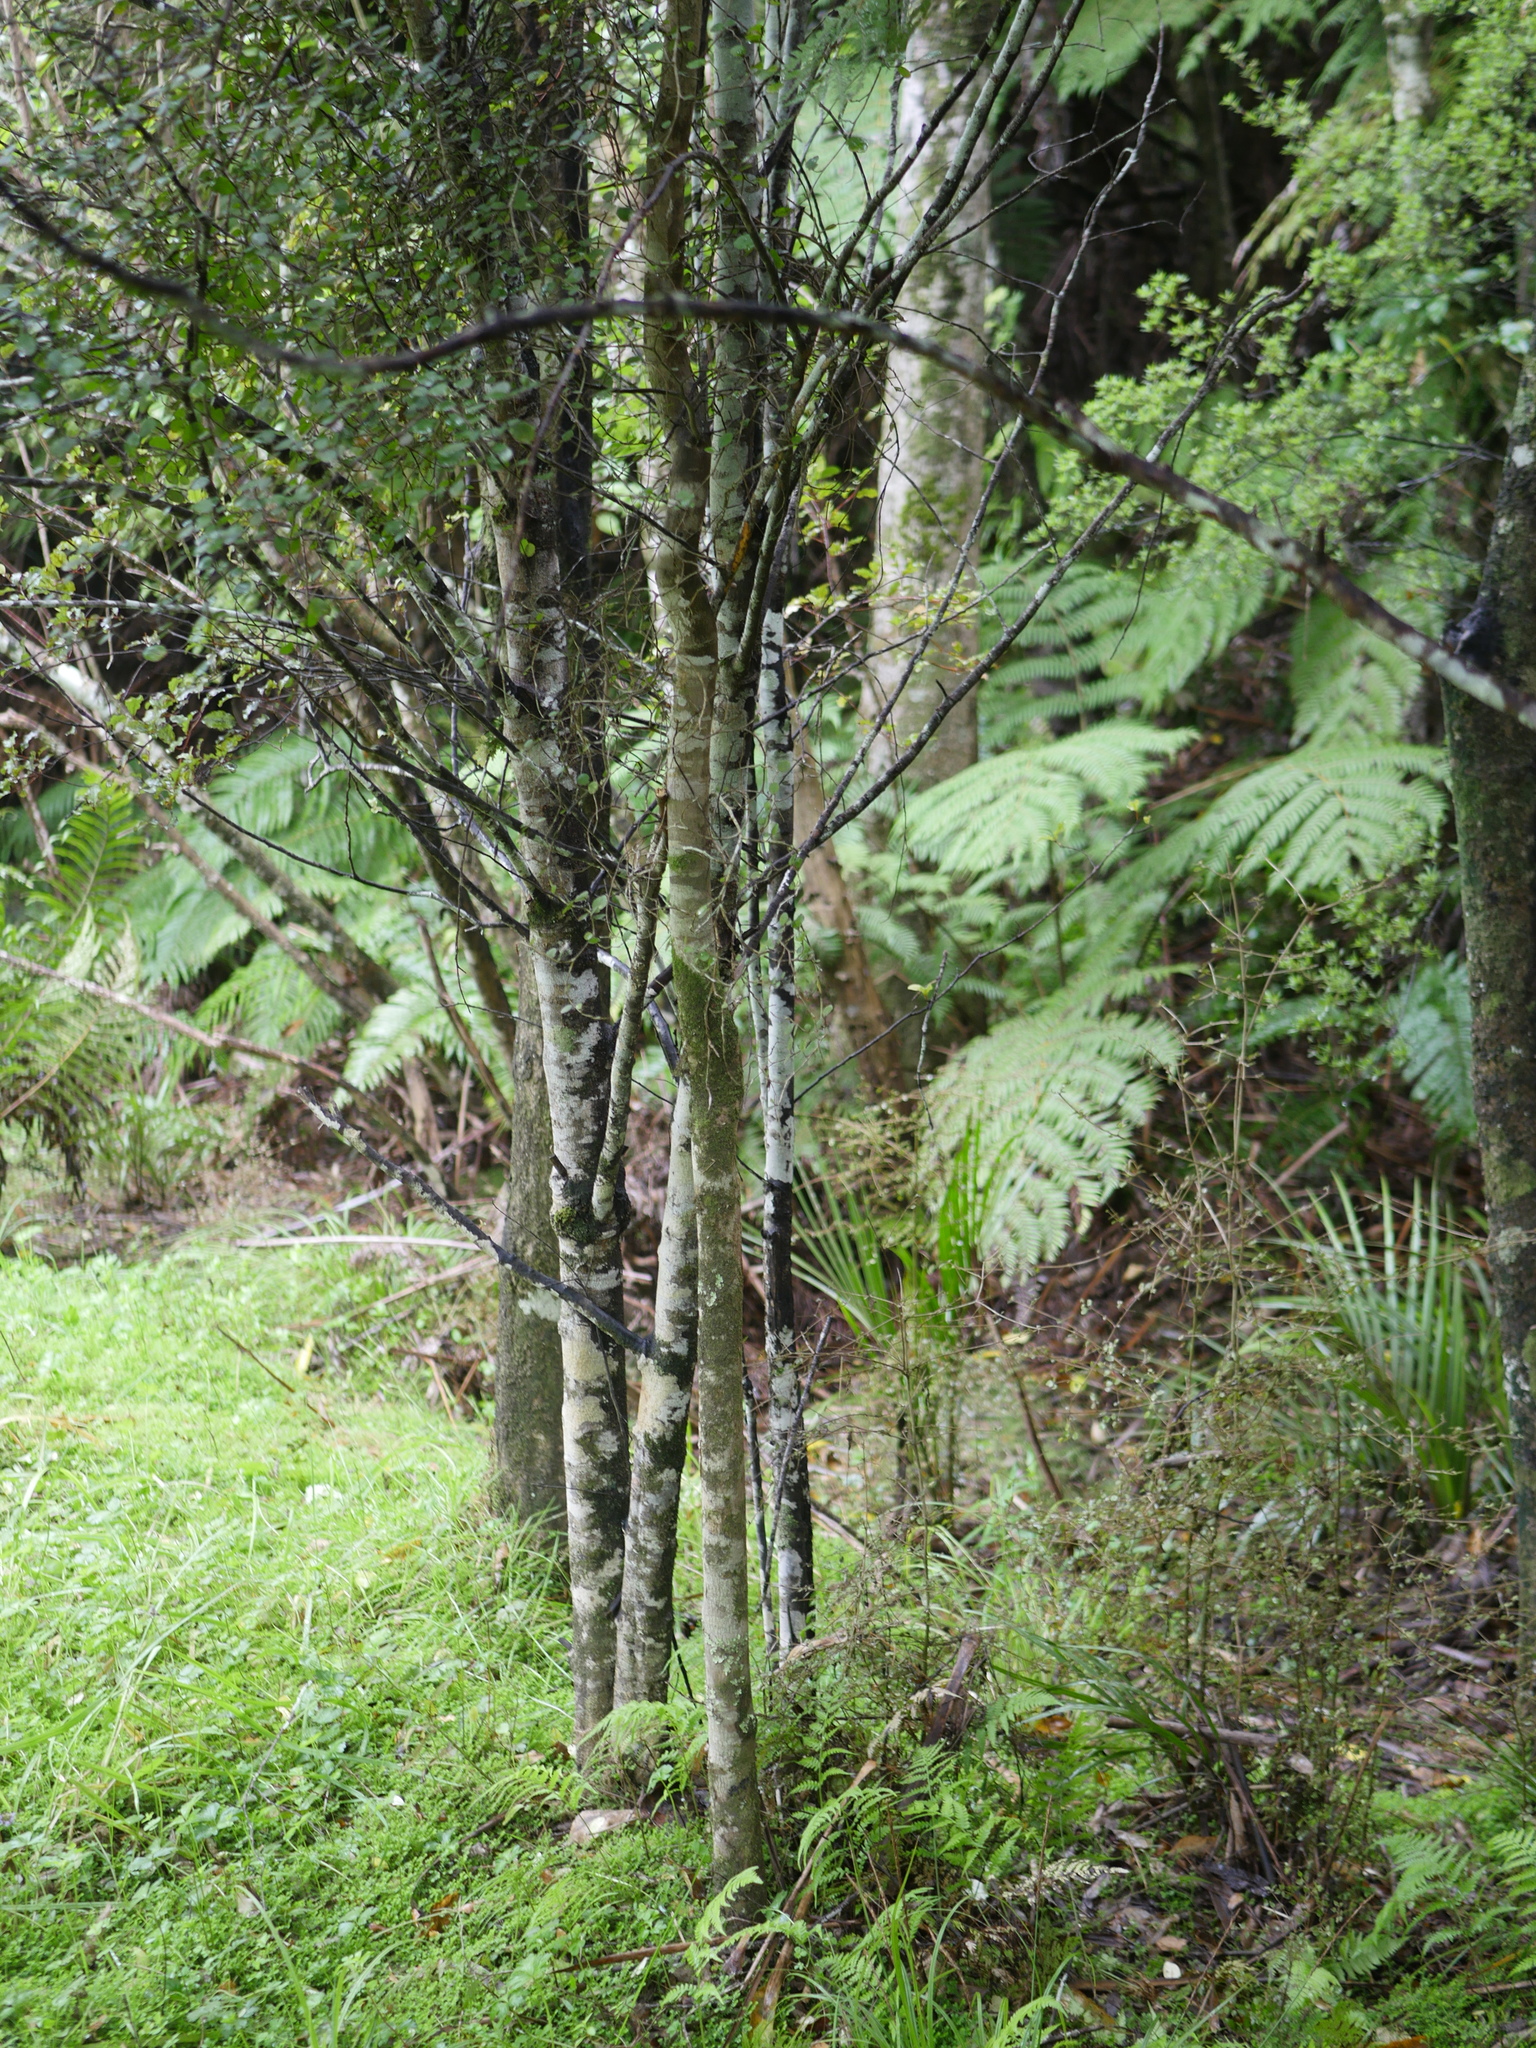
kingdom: Plantae
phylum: Tracheophyta
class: Magnoliopsida
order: Rosales
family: Moraceae
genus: Paratrophis
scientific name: Paratrophis microphylla
